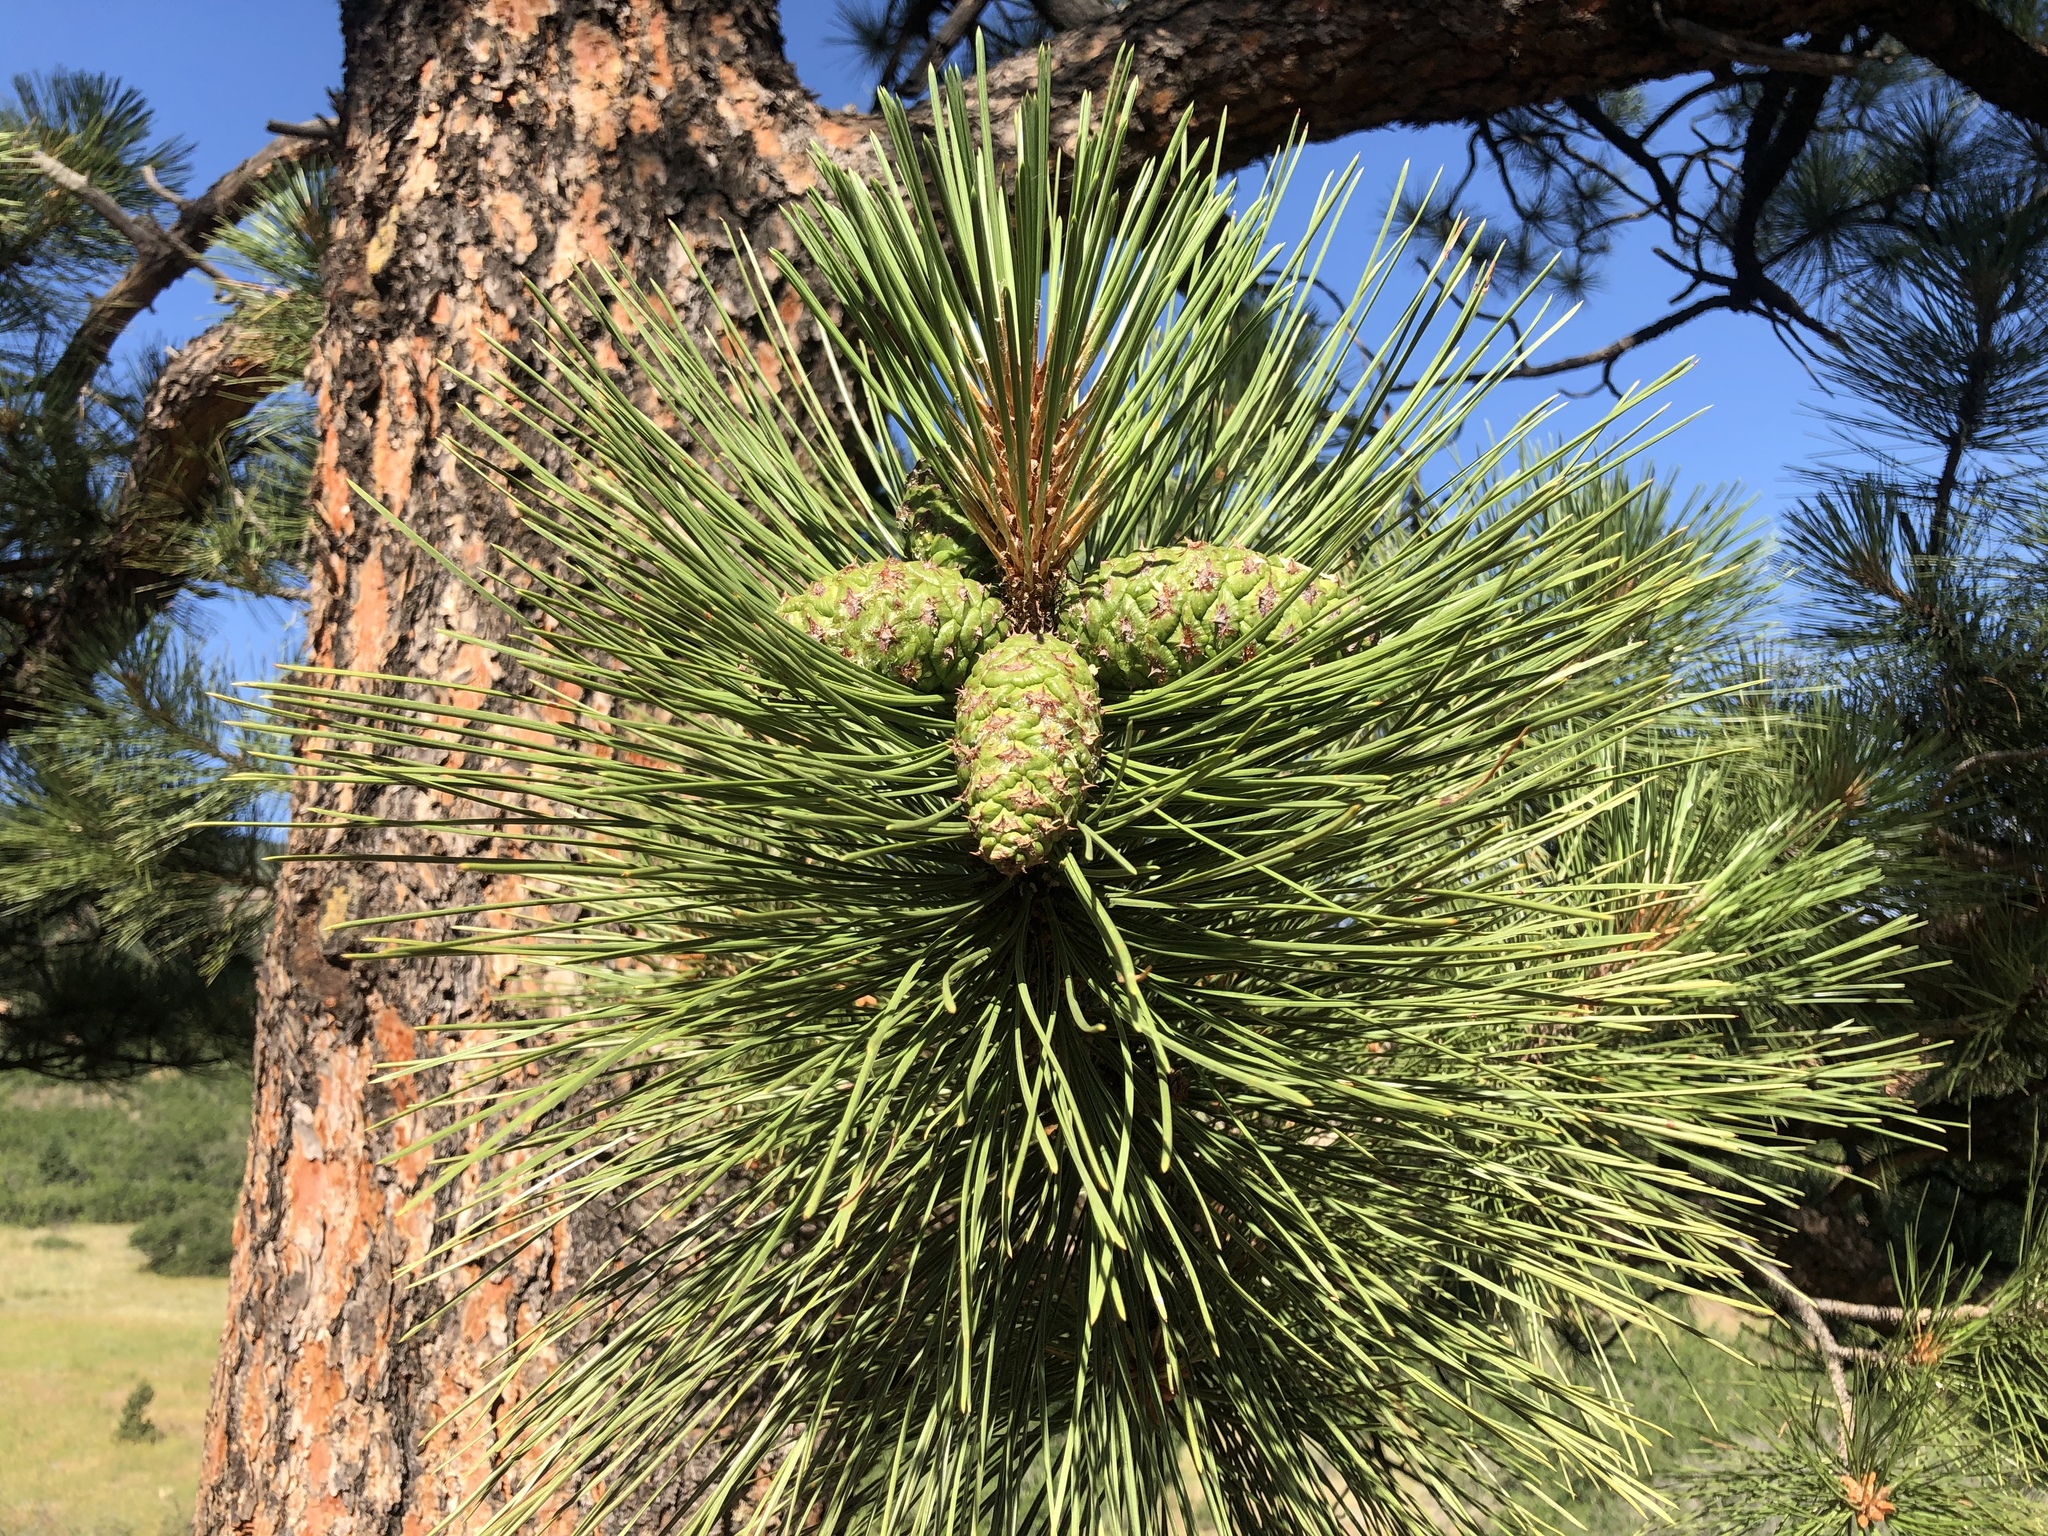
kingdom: Plantae
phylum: Tracheophyta
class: Pinopsida
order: Pinales
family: Pinaceae
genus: Pinus
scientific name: Pinus ponderosa
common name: Western yellow-pine
